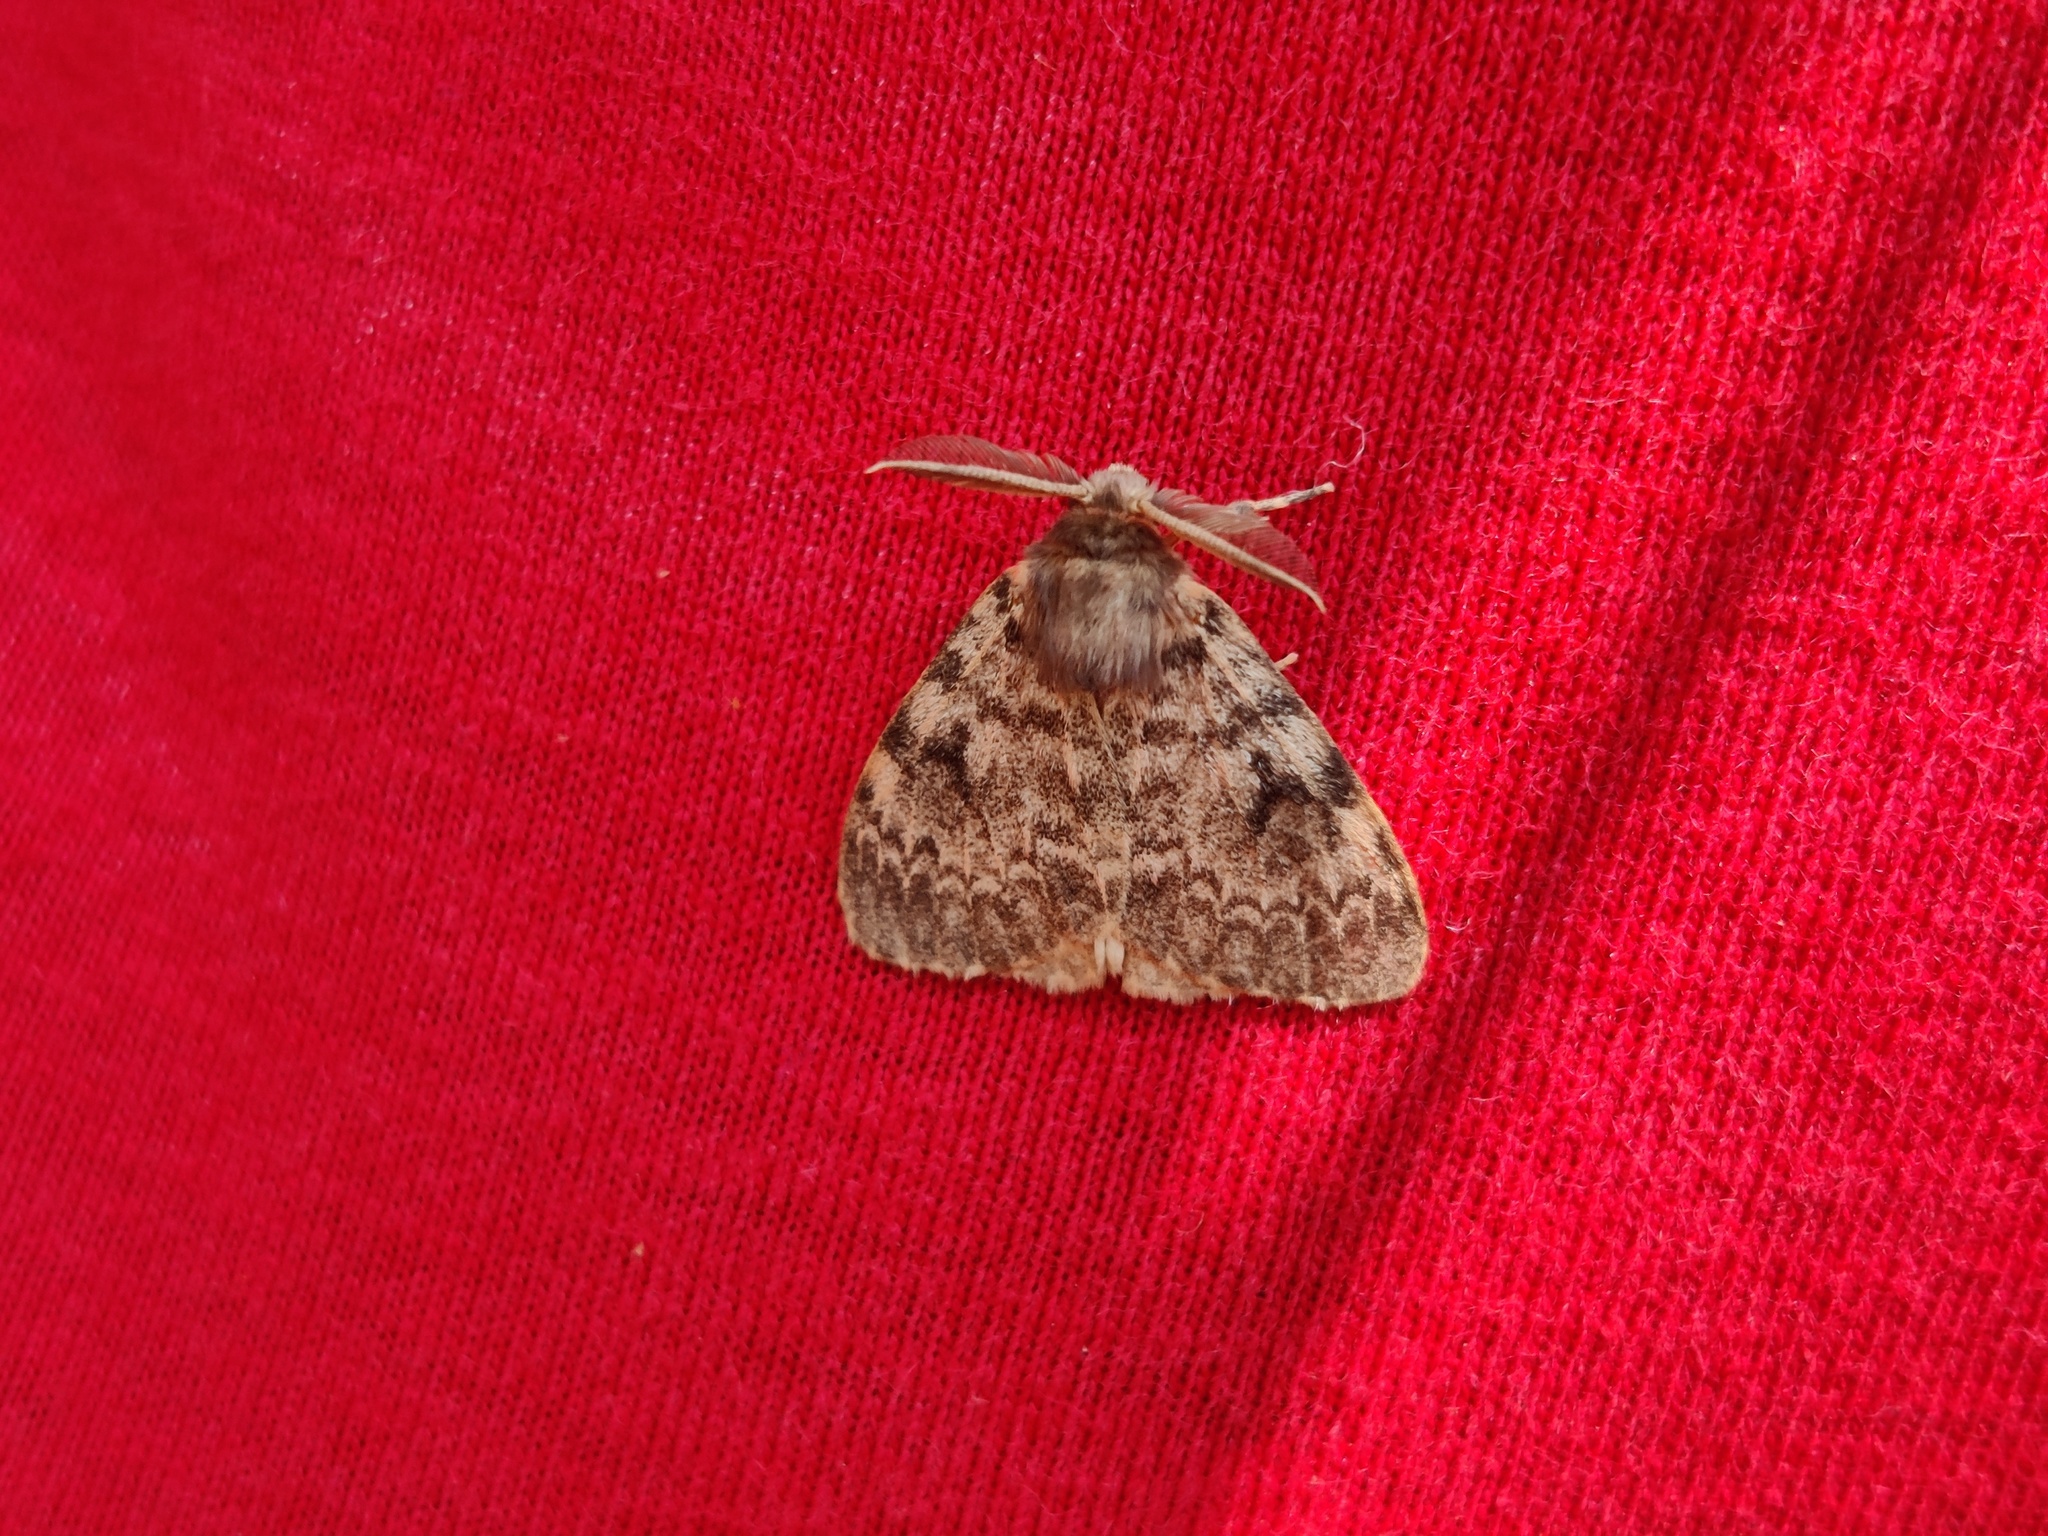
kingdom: Animalia
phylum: Arthropoda
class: Insecta
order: Lepidoptera
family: Erebidae
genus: Lymantria
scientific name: Lymantria ampla
